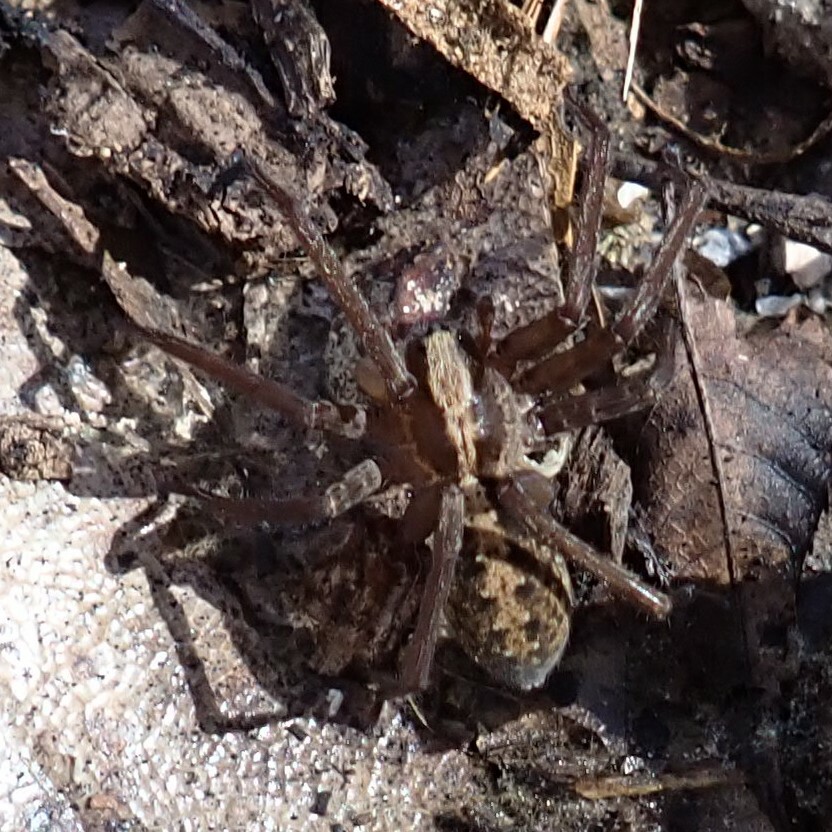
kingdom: Animalia
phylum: Arthropoda
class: Arachnida
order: Araneae
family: Ctenidae
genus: Ctenus
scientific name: Ctenus captiosus
